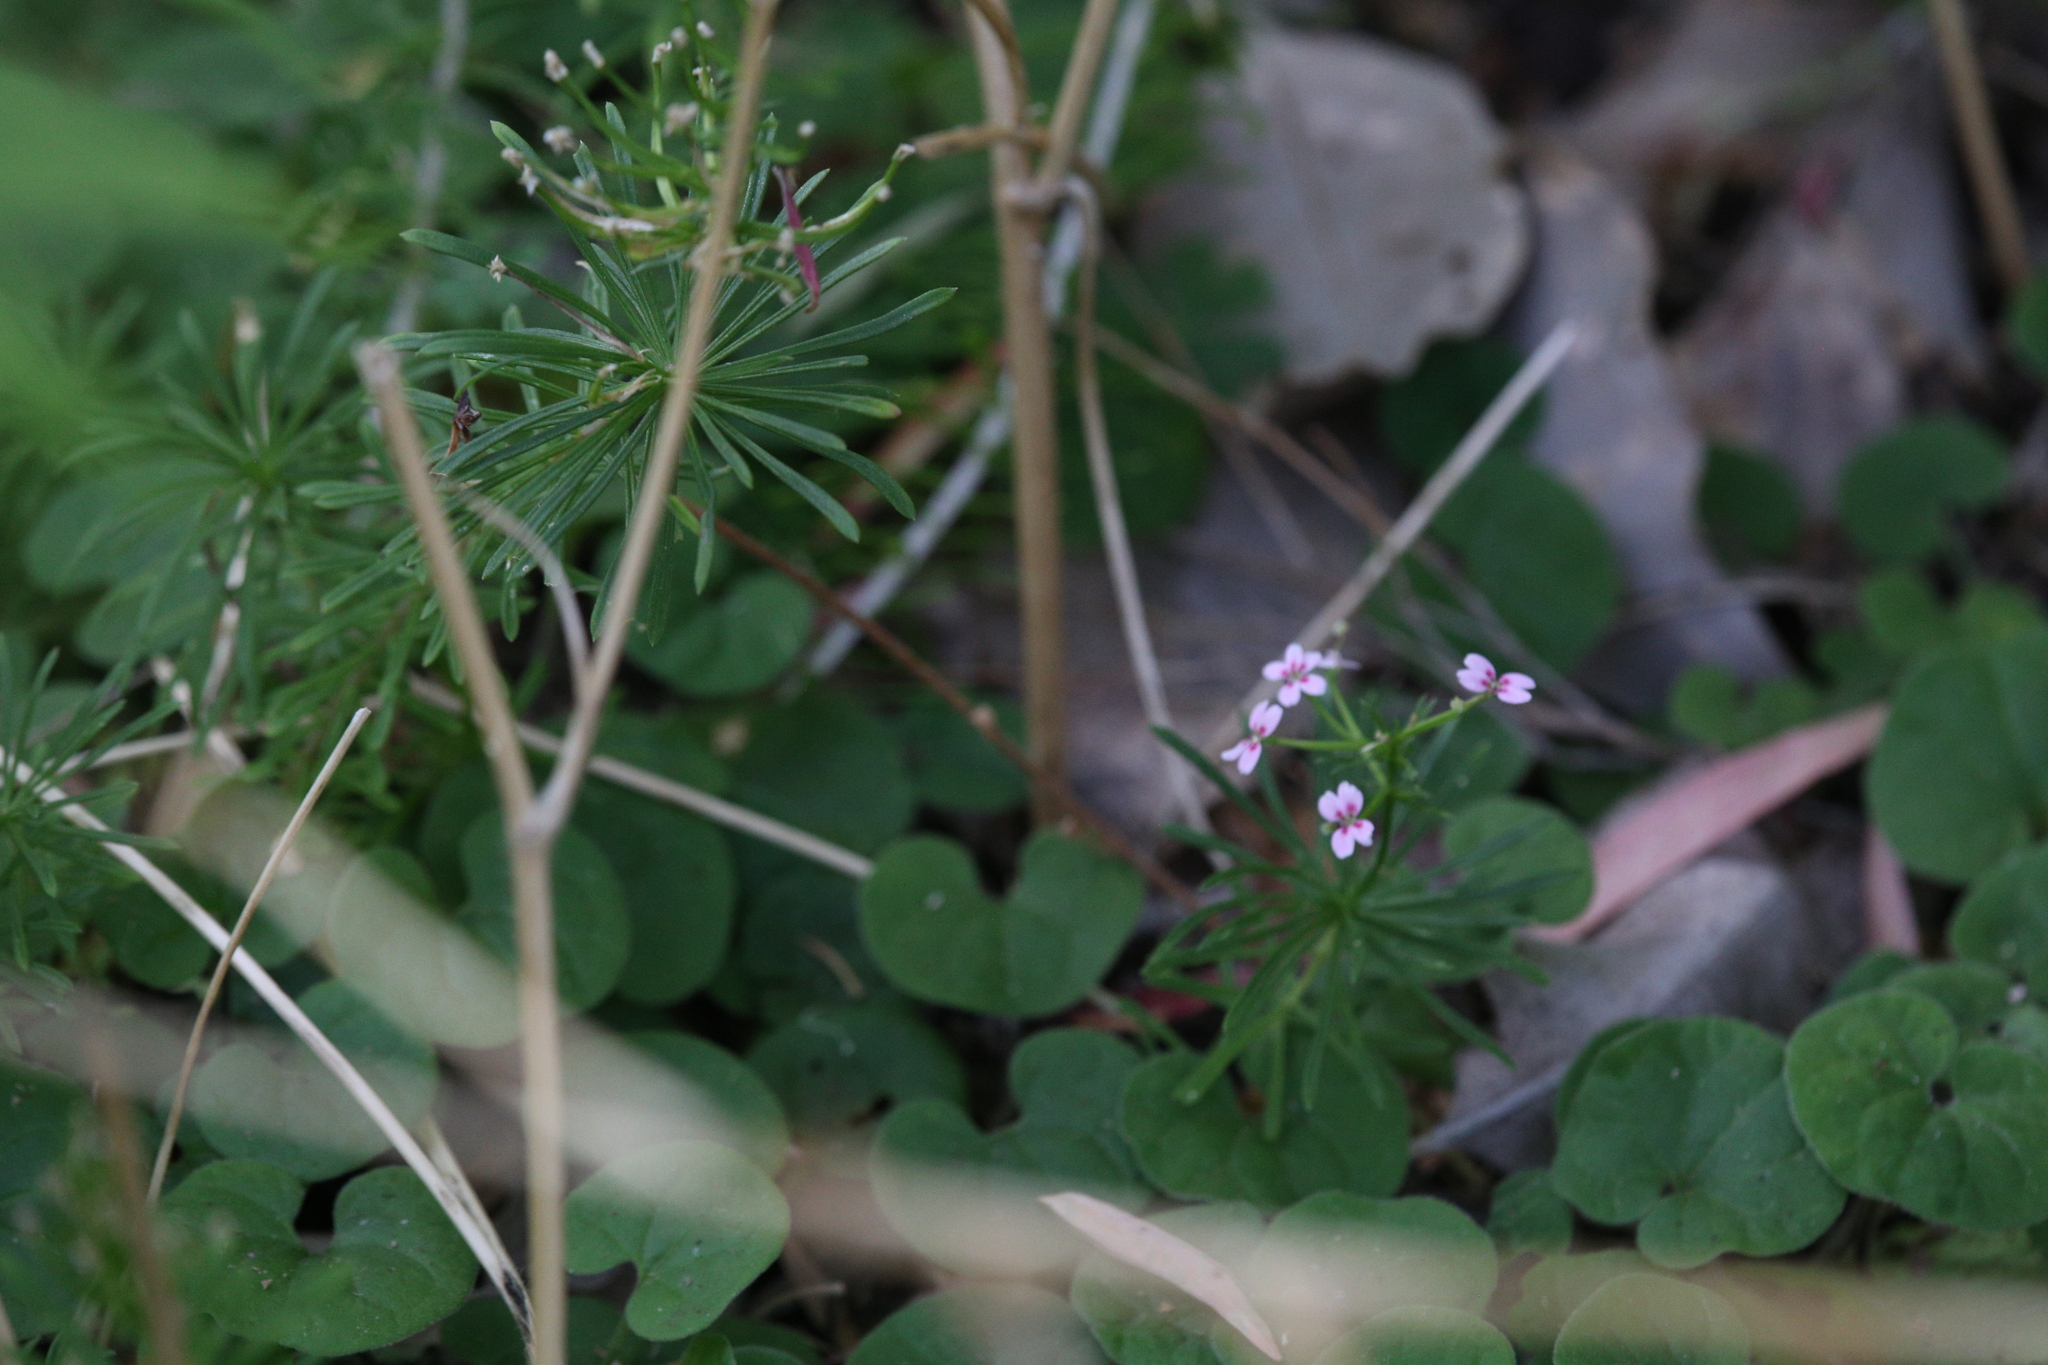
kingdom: Plantae
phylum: Tracheophyta
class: Magnoliopsida
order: Asterales
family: Stylidiaceae
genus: Stylidium
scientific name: Stylidium adnatum
